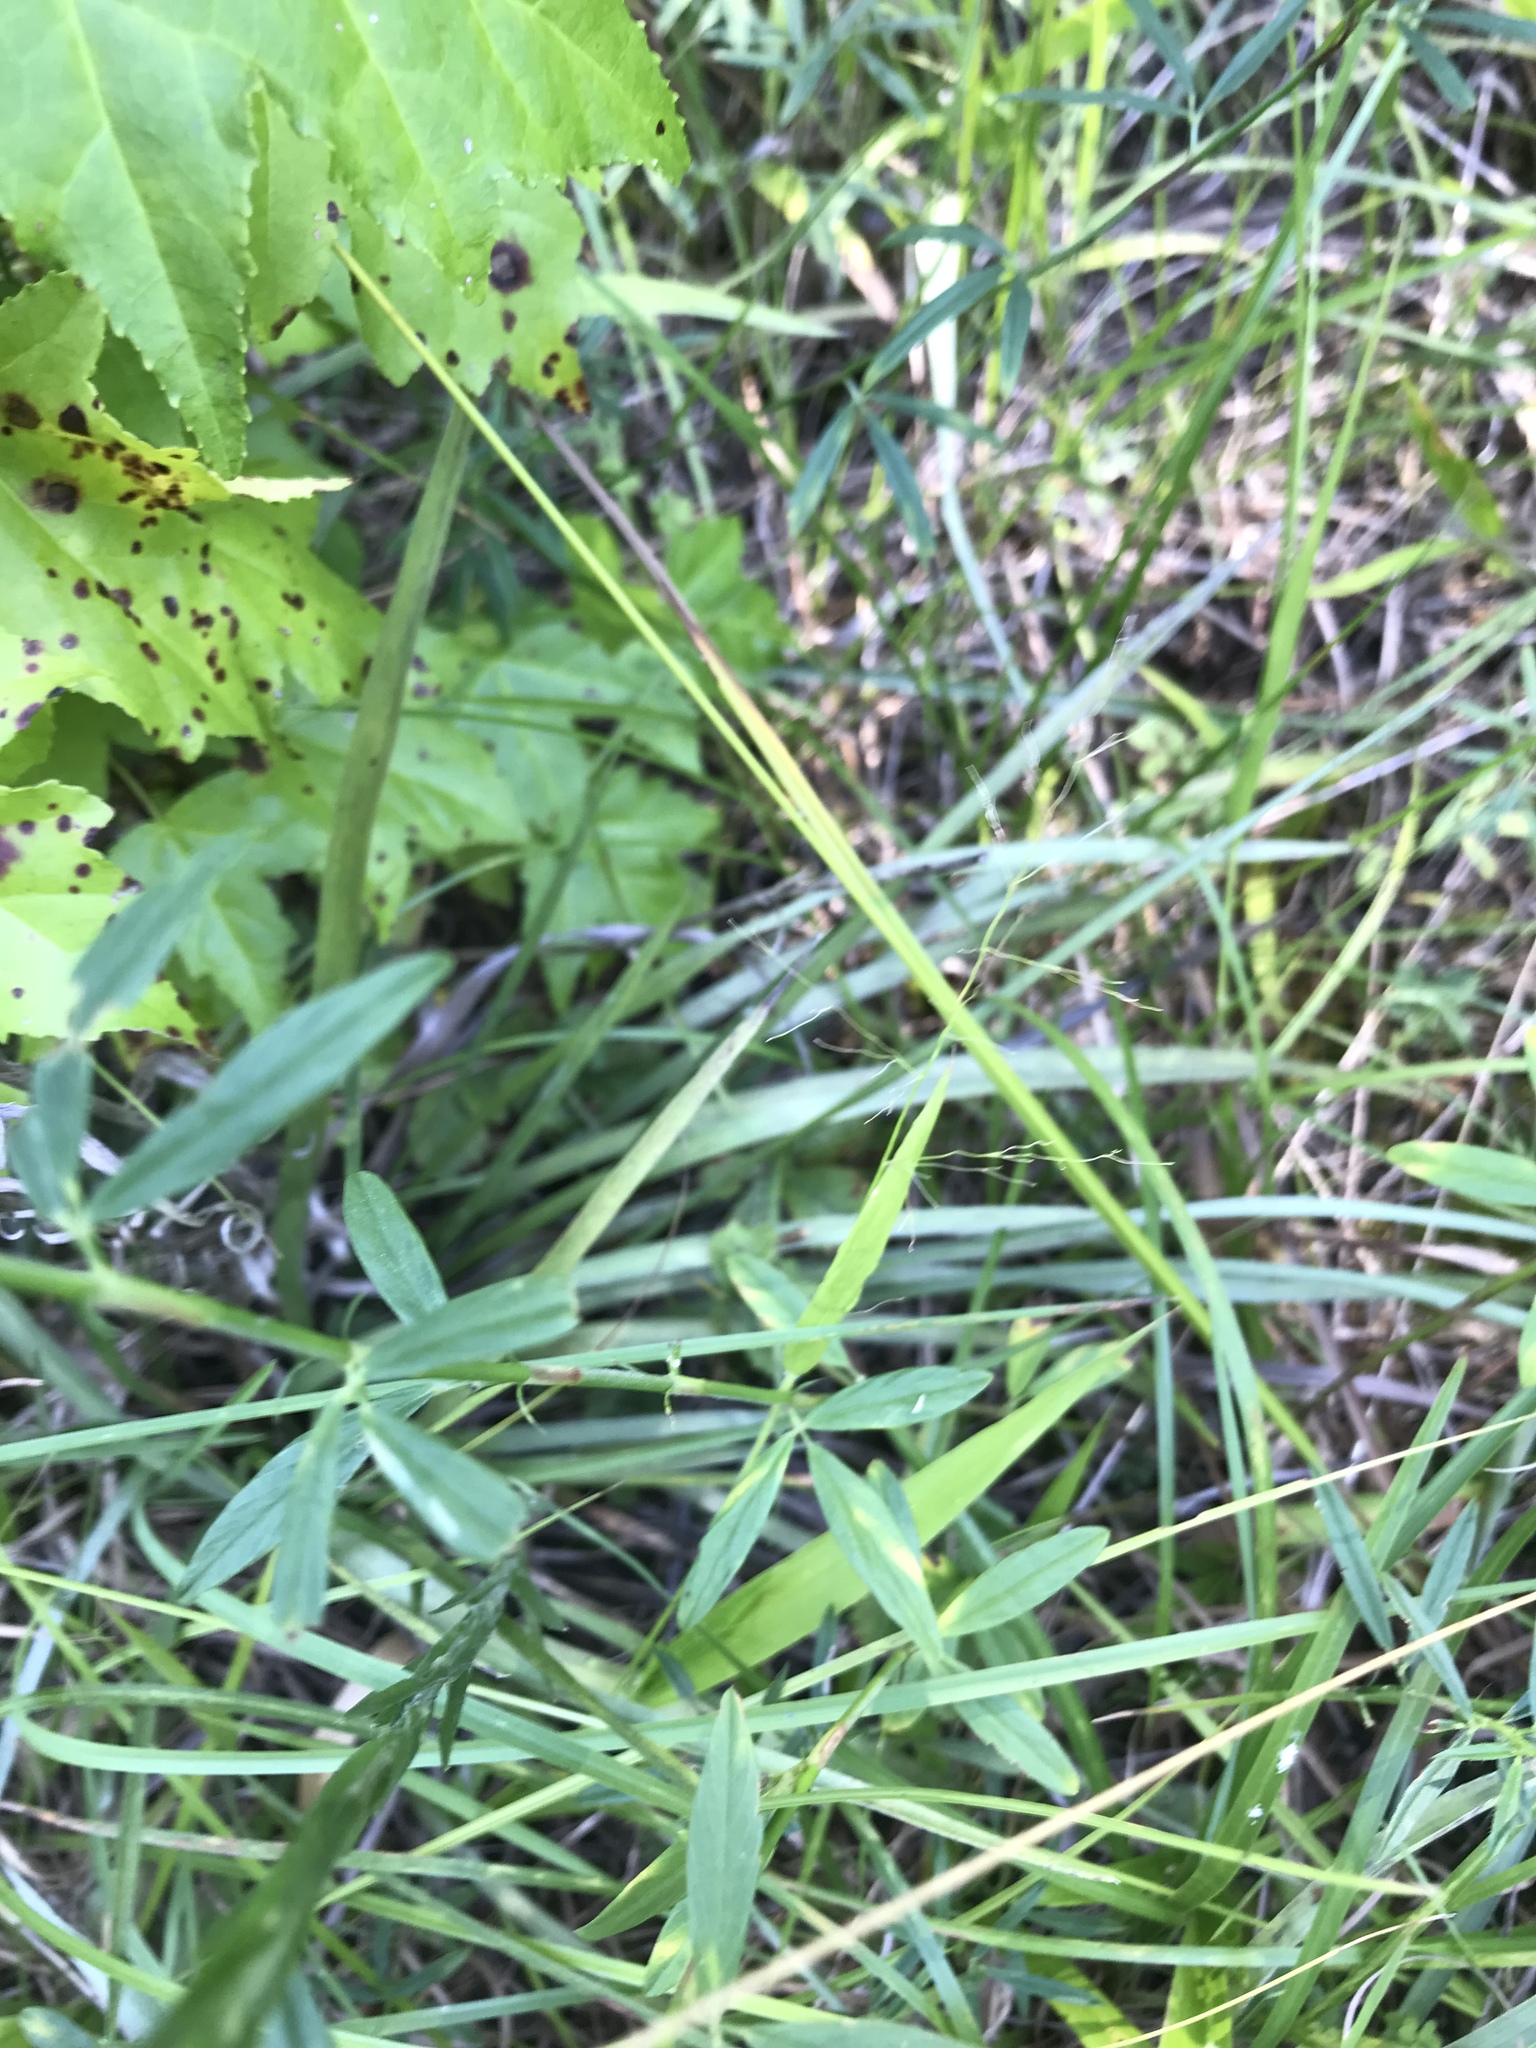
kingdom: Plantae
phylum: Tracheophyta
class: Magnoliopsida
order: Fabales
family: Fabaceae
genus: Stylosanthes
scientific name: Stylosanthes biflora
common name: Two-flower pencil-flower
